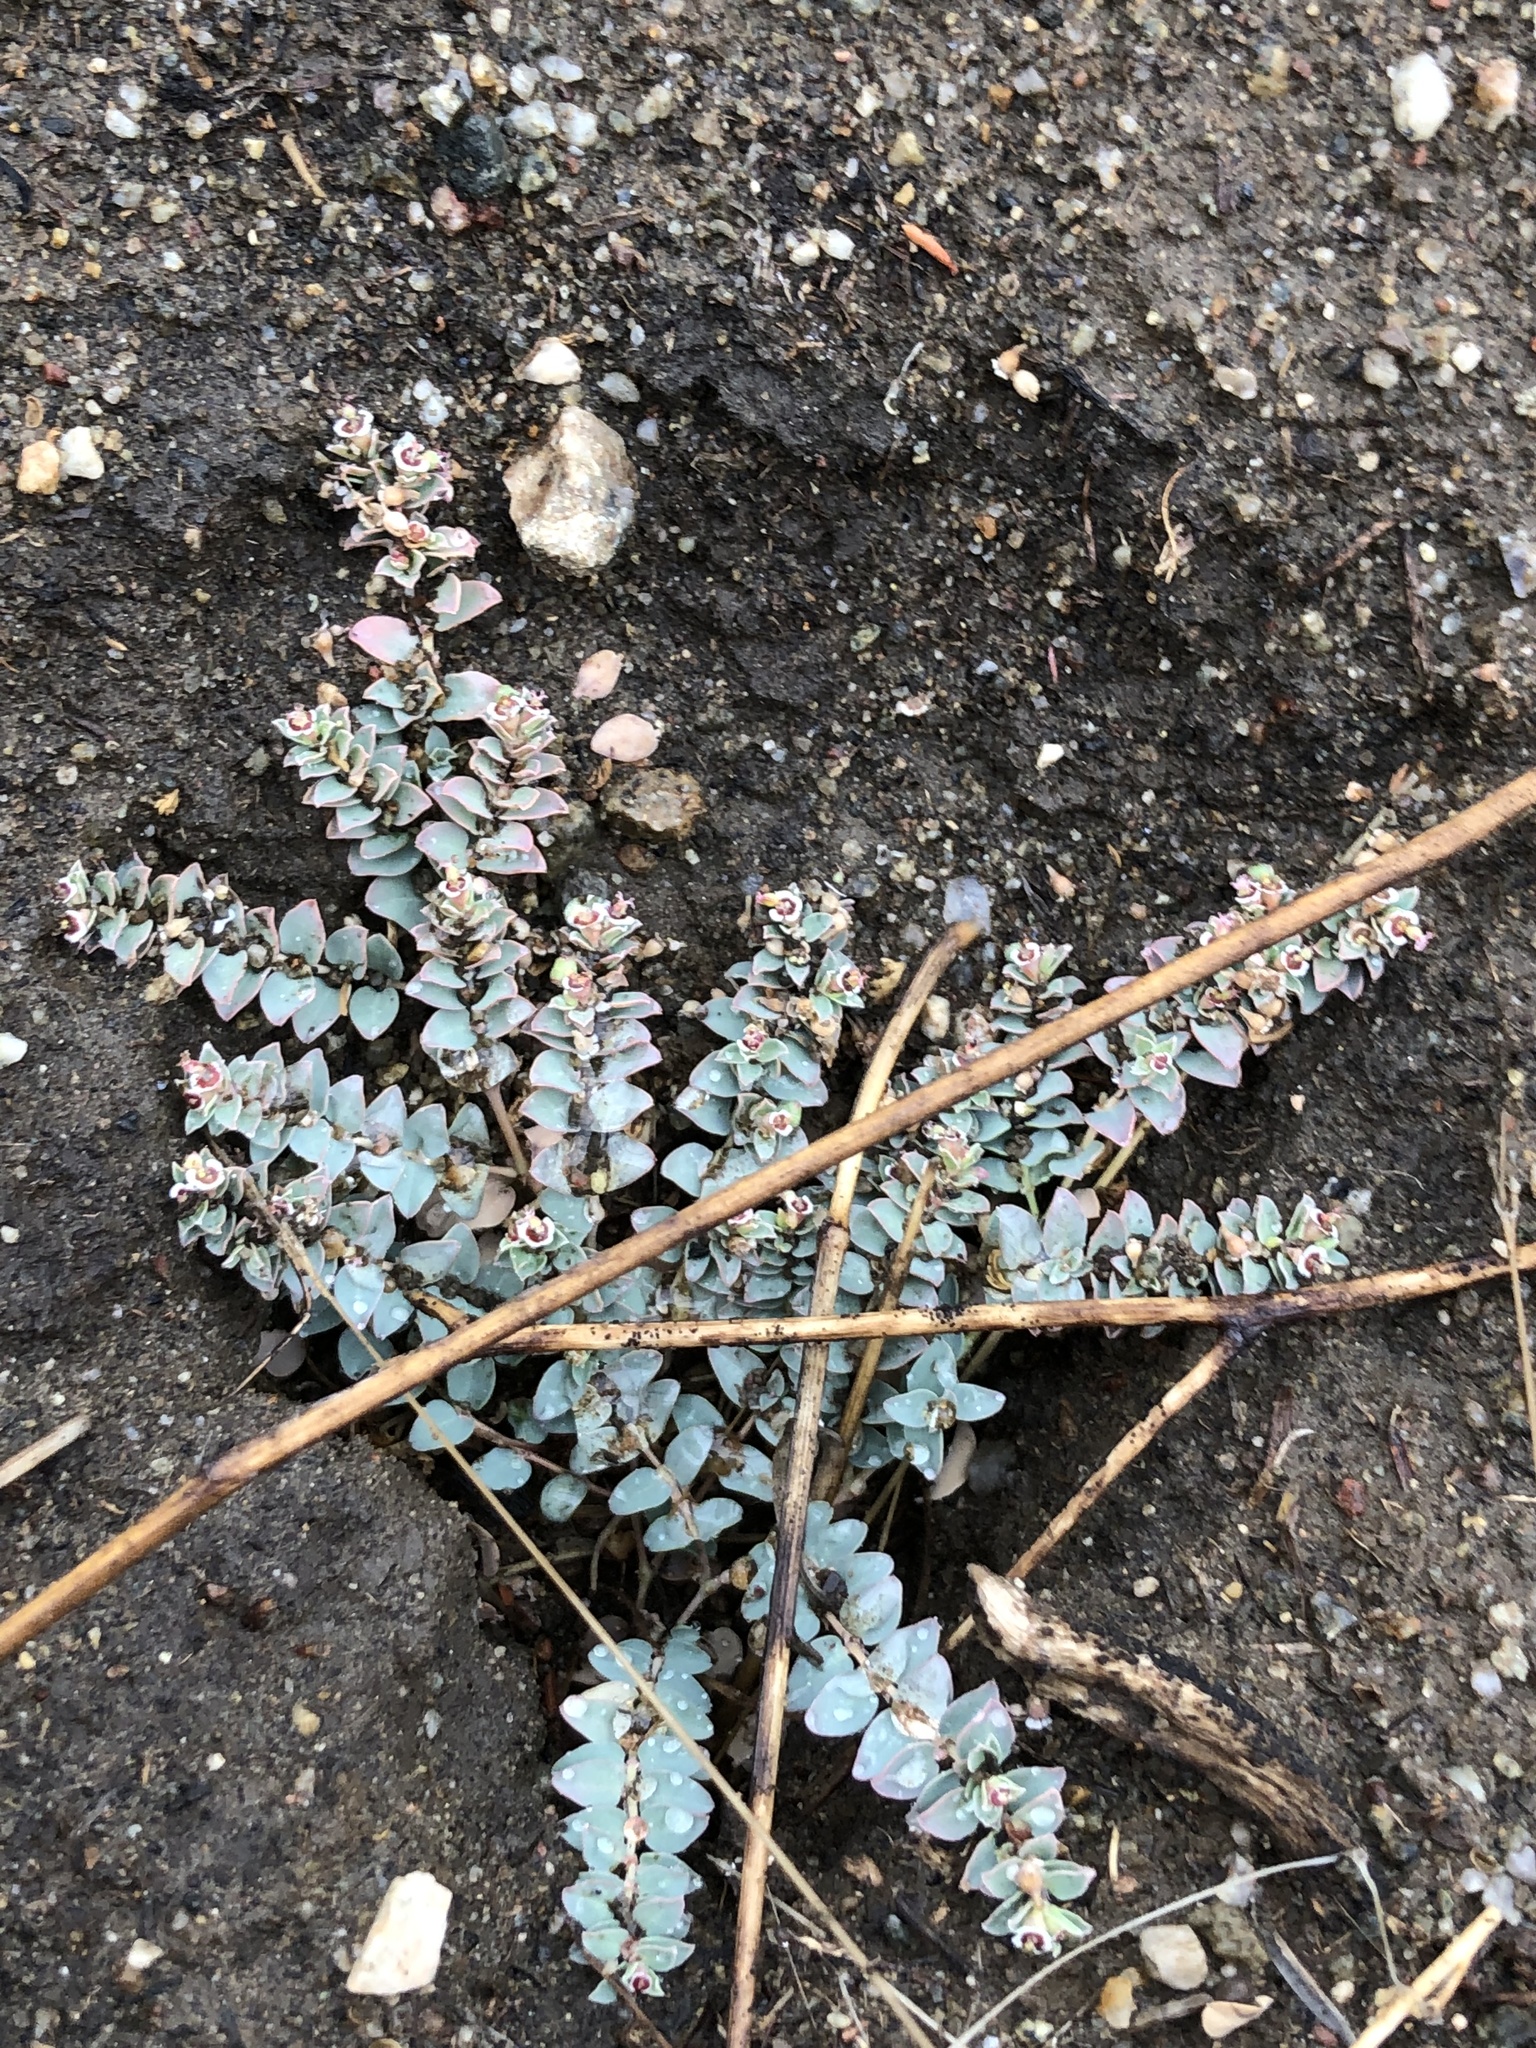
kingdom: Plantae
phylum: Tracheophyta
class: Magnoliopsida
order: Malpighiales
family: Euphorbiaceae
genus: Euphorbia
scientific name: Euphorbia albomarginata
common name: Whitemargin sandmat
